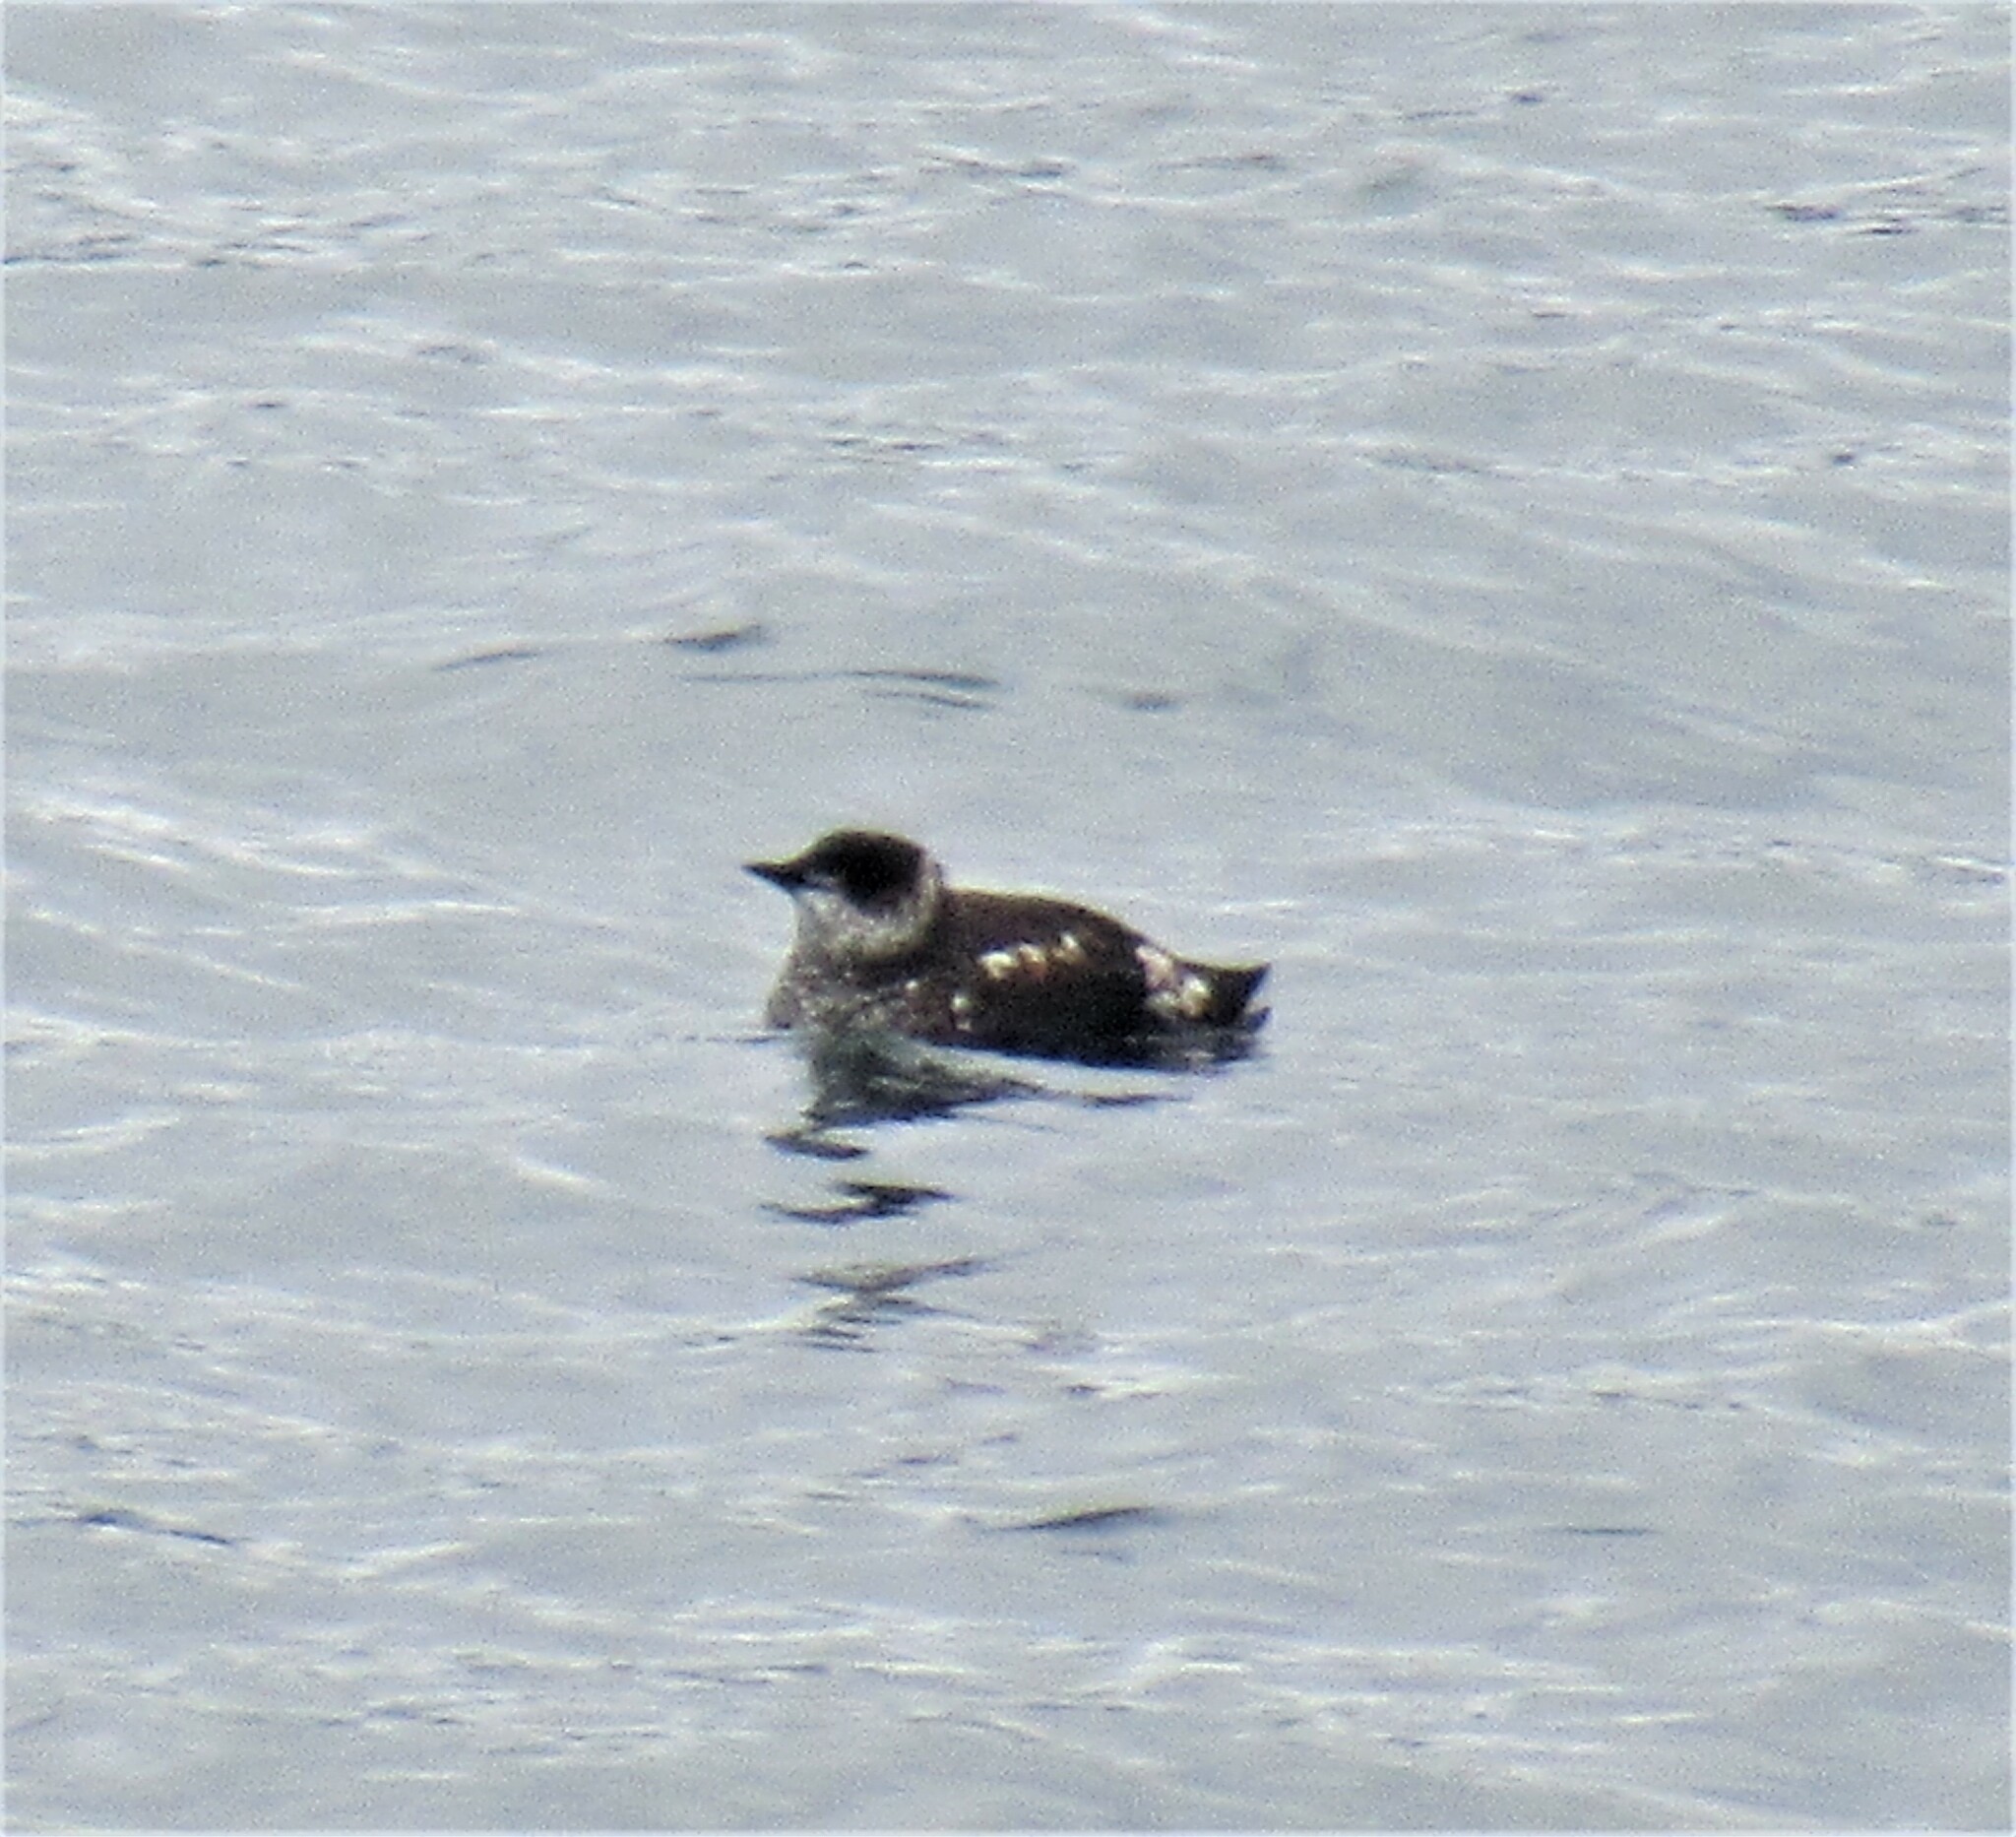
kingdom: Animalia
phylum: Chordata
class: Aves
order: Charadriiformes
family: Alcidae
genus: Brachyramphus
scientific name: Brachyramphus marmoratus
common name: Marbled murrelet
